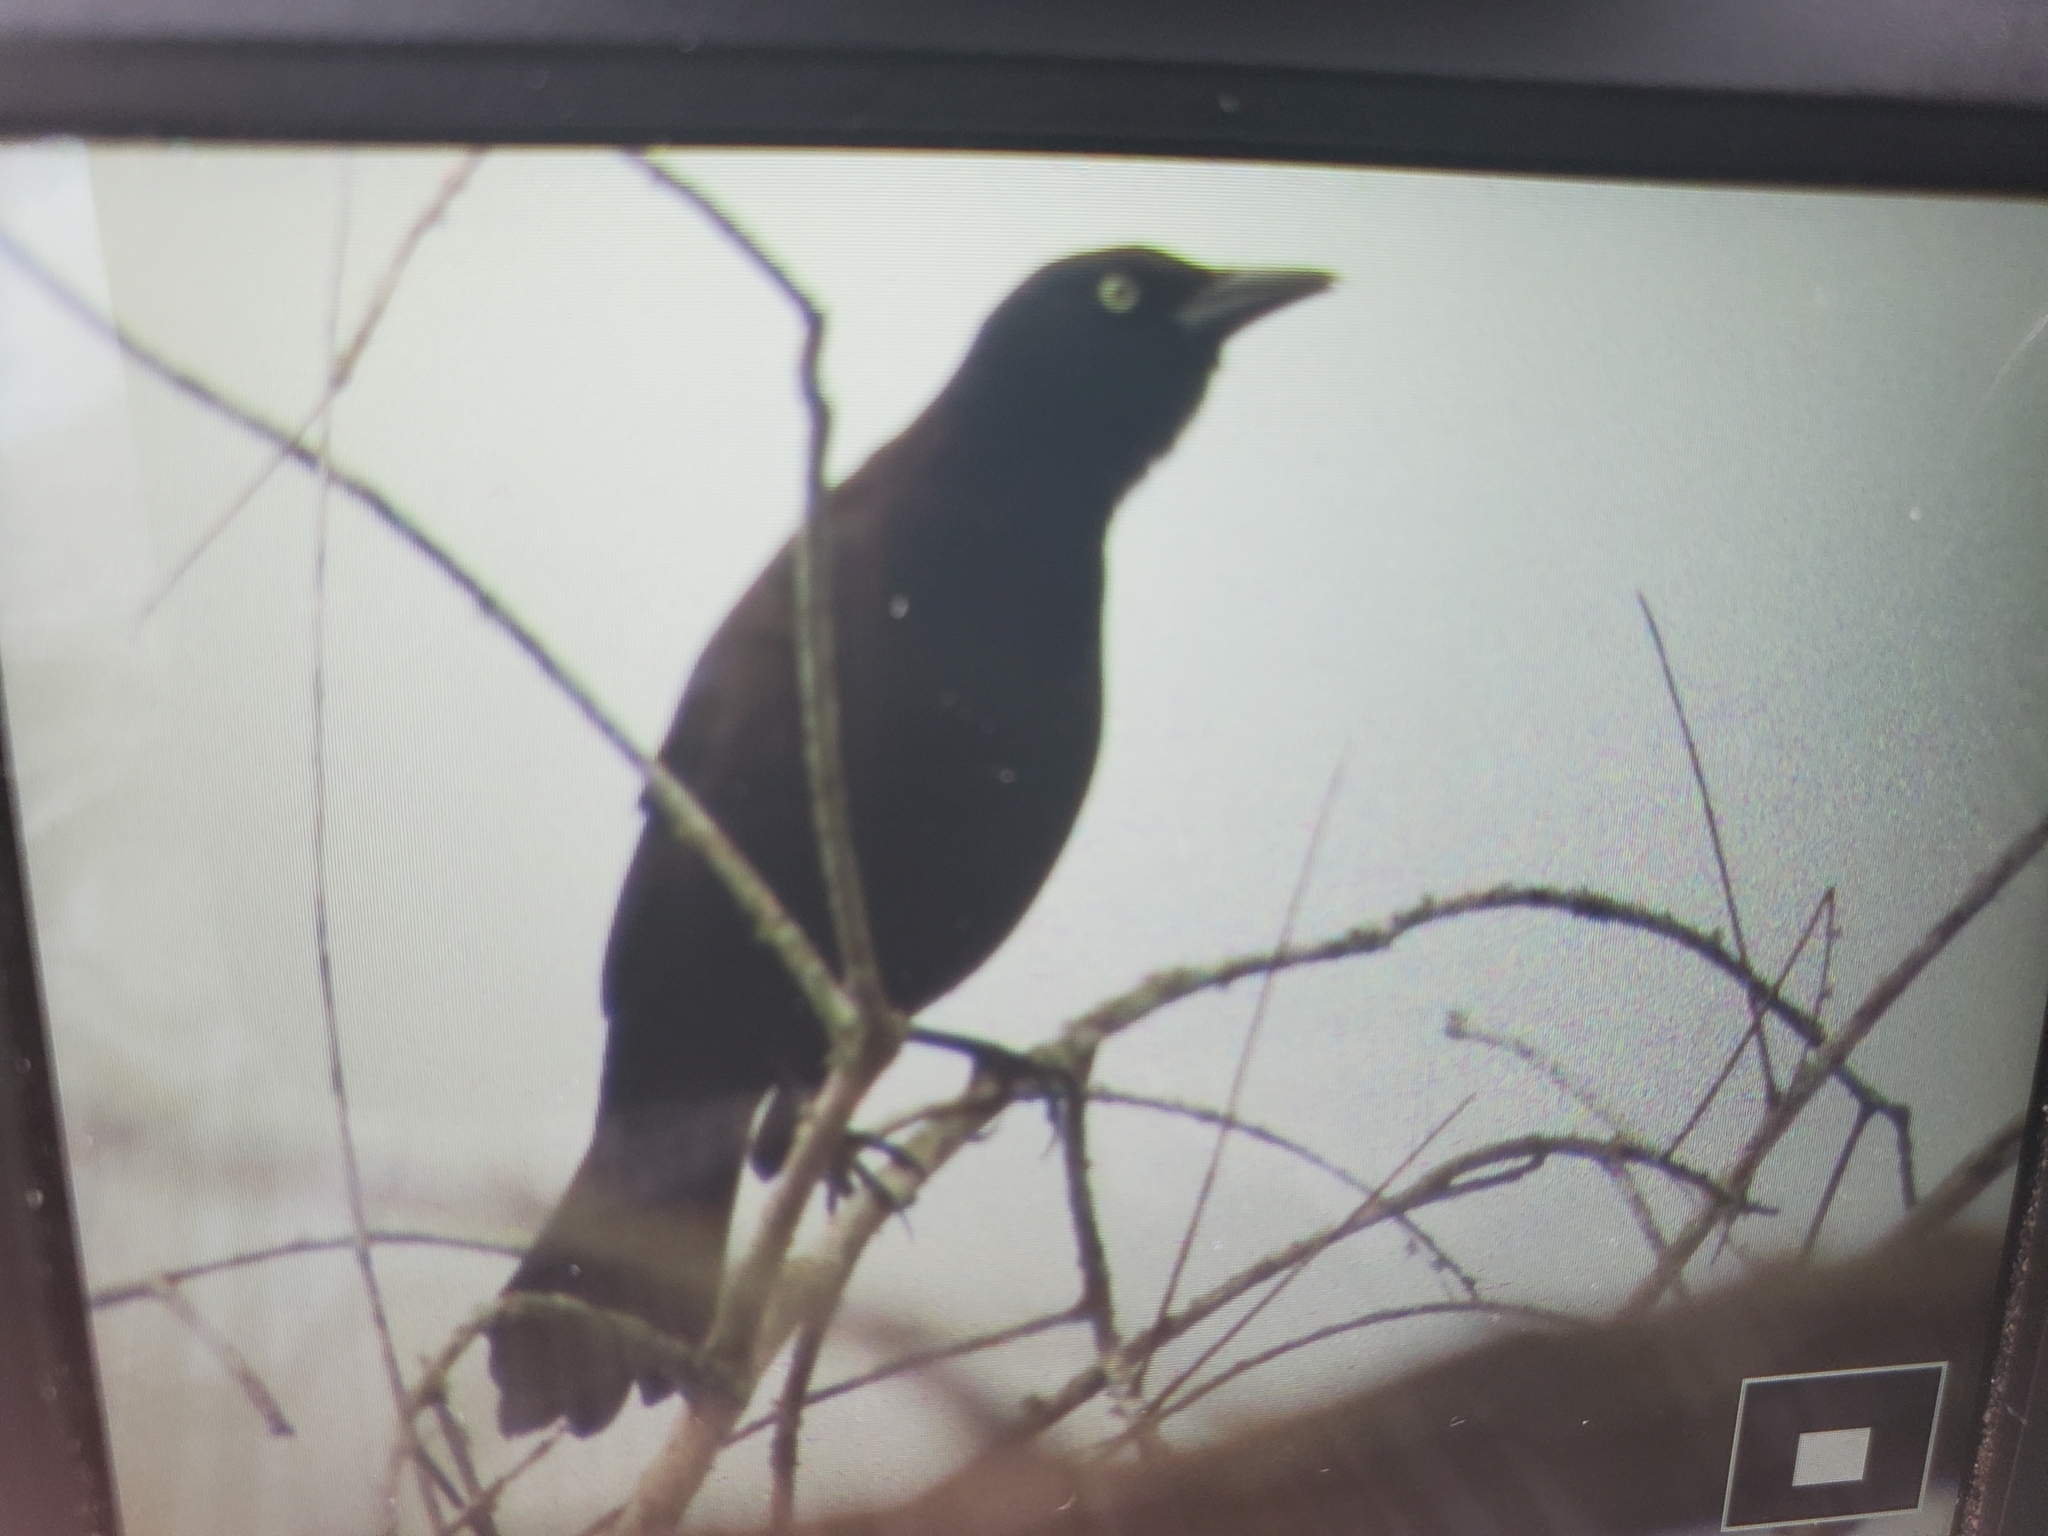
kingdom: Animalia
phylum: Chordata
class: Aves
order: Passeriformes
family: Icteridae
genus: Quiscalus
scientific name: Quiscalus quiscula
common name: Common grackle
